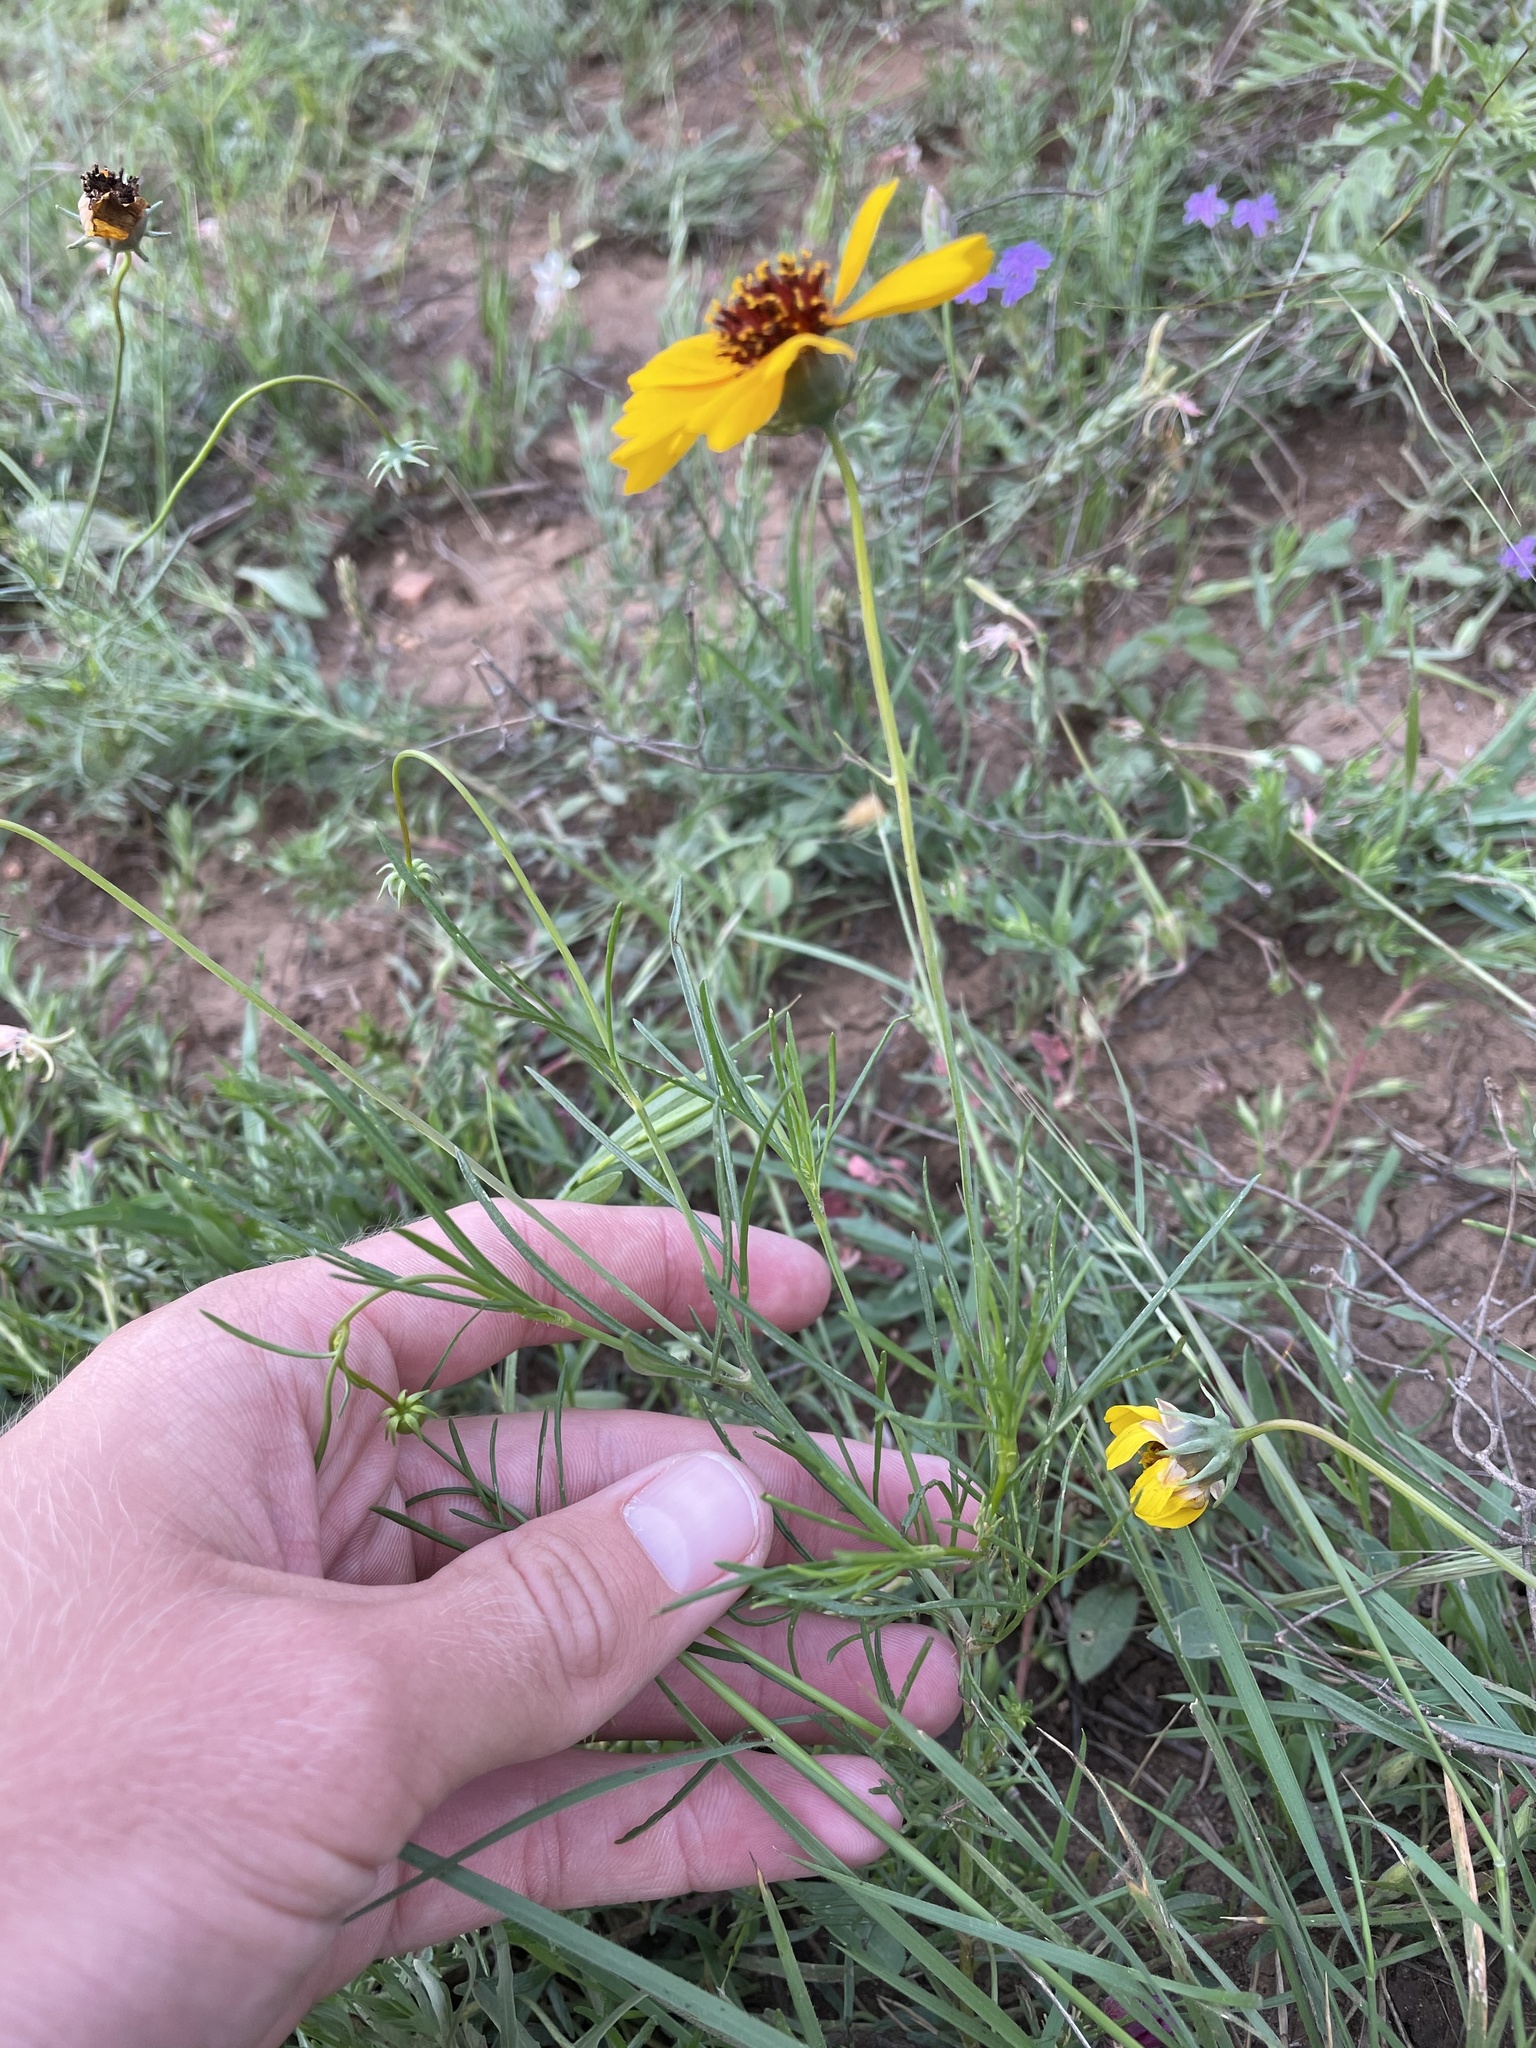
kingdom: Plantae
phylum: Tracheophyta
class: Magnoliopsida
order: Asterales
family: Asteraceae
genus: Thelesperma
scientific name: Thelesperma filifolium
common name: Stiff greenthread
